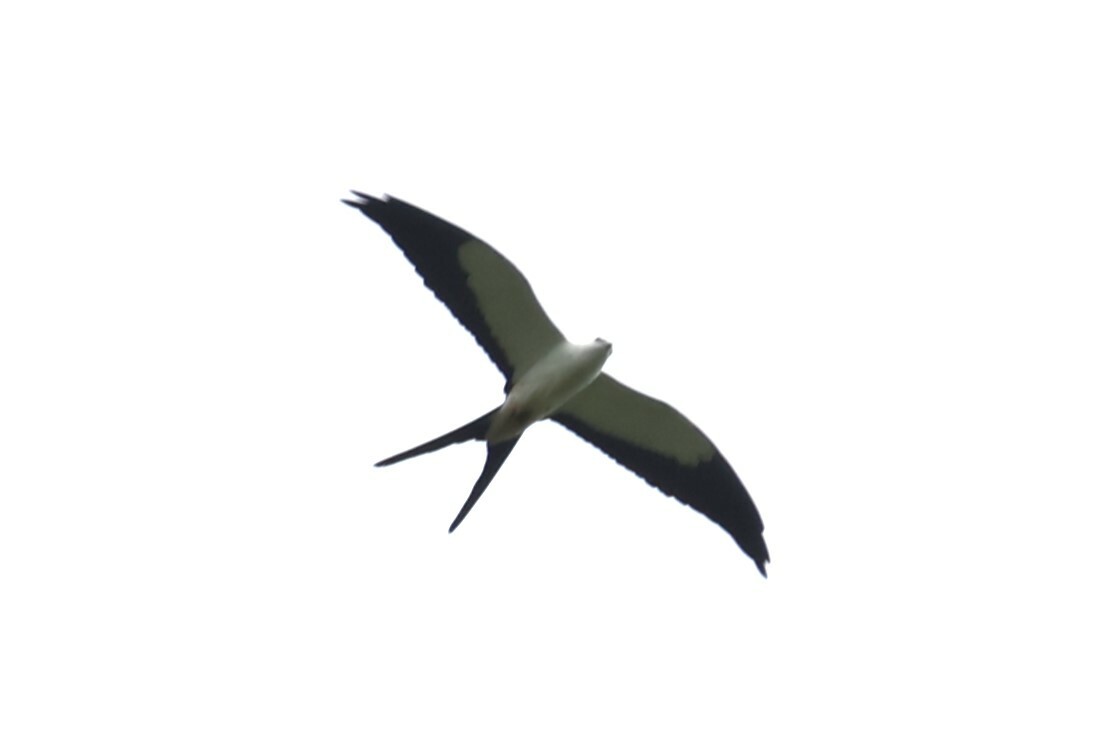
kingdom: Animalia
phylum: Chordata
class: Aves
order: Accipitriformes
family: Accipitridae
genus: Elanoides
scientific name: Elanoides forficatus
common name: Swallow-tailed kite
